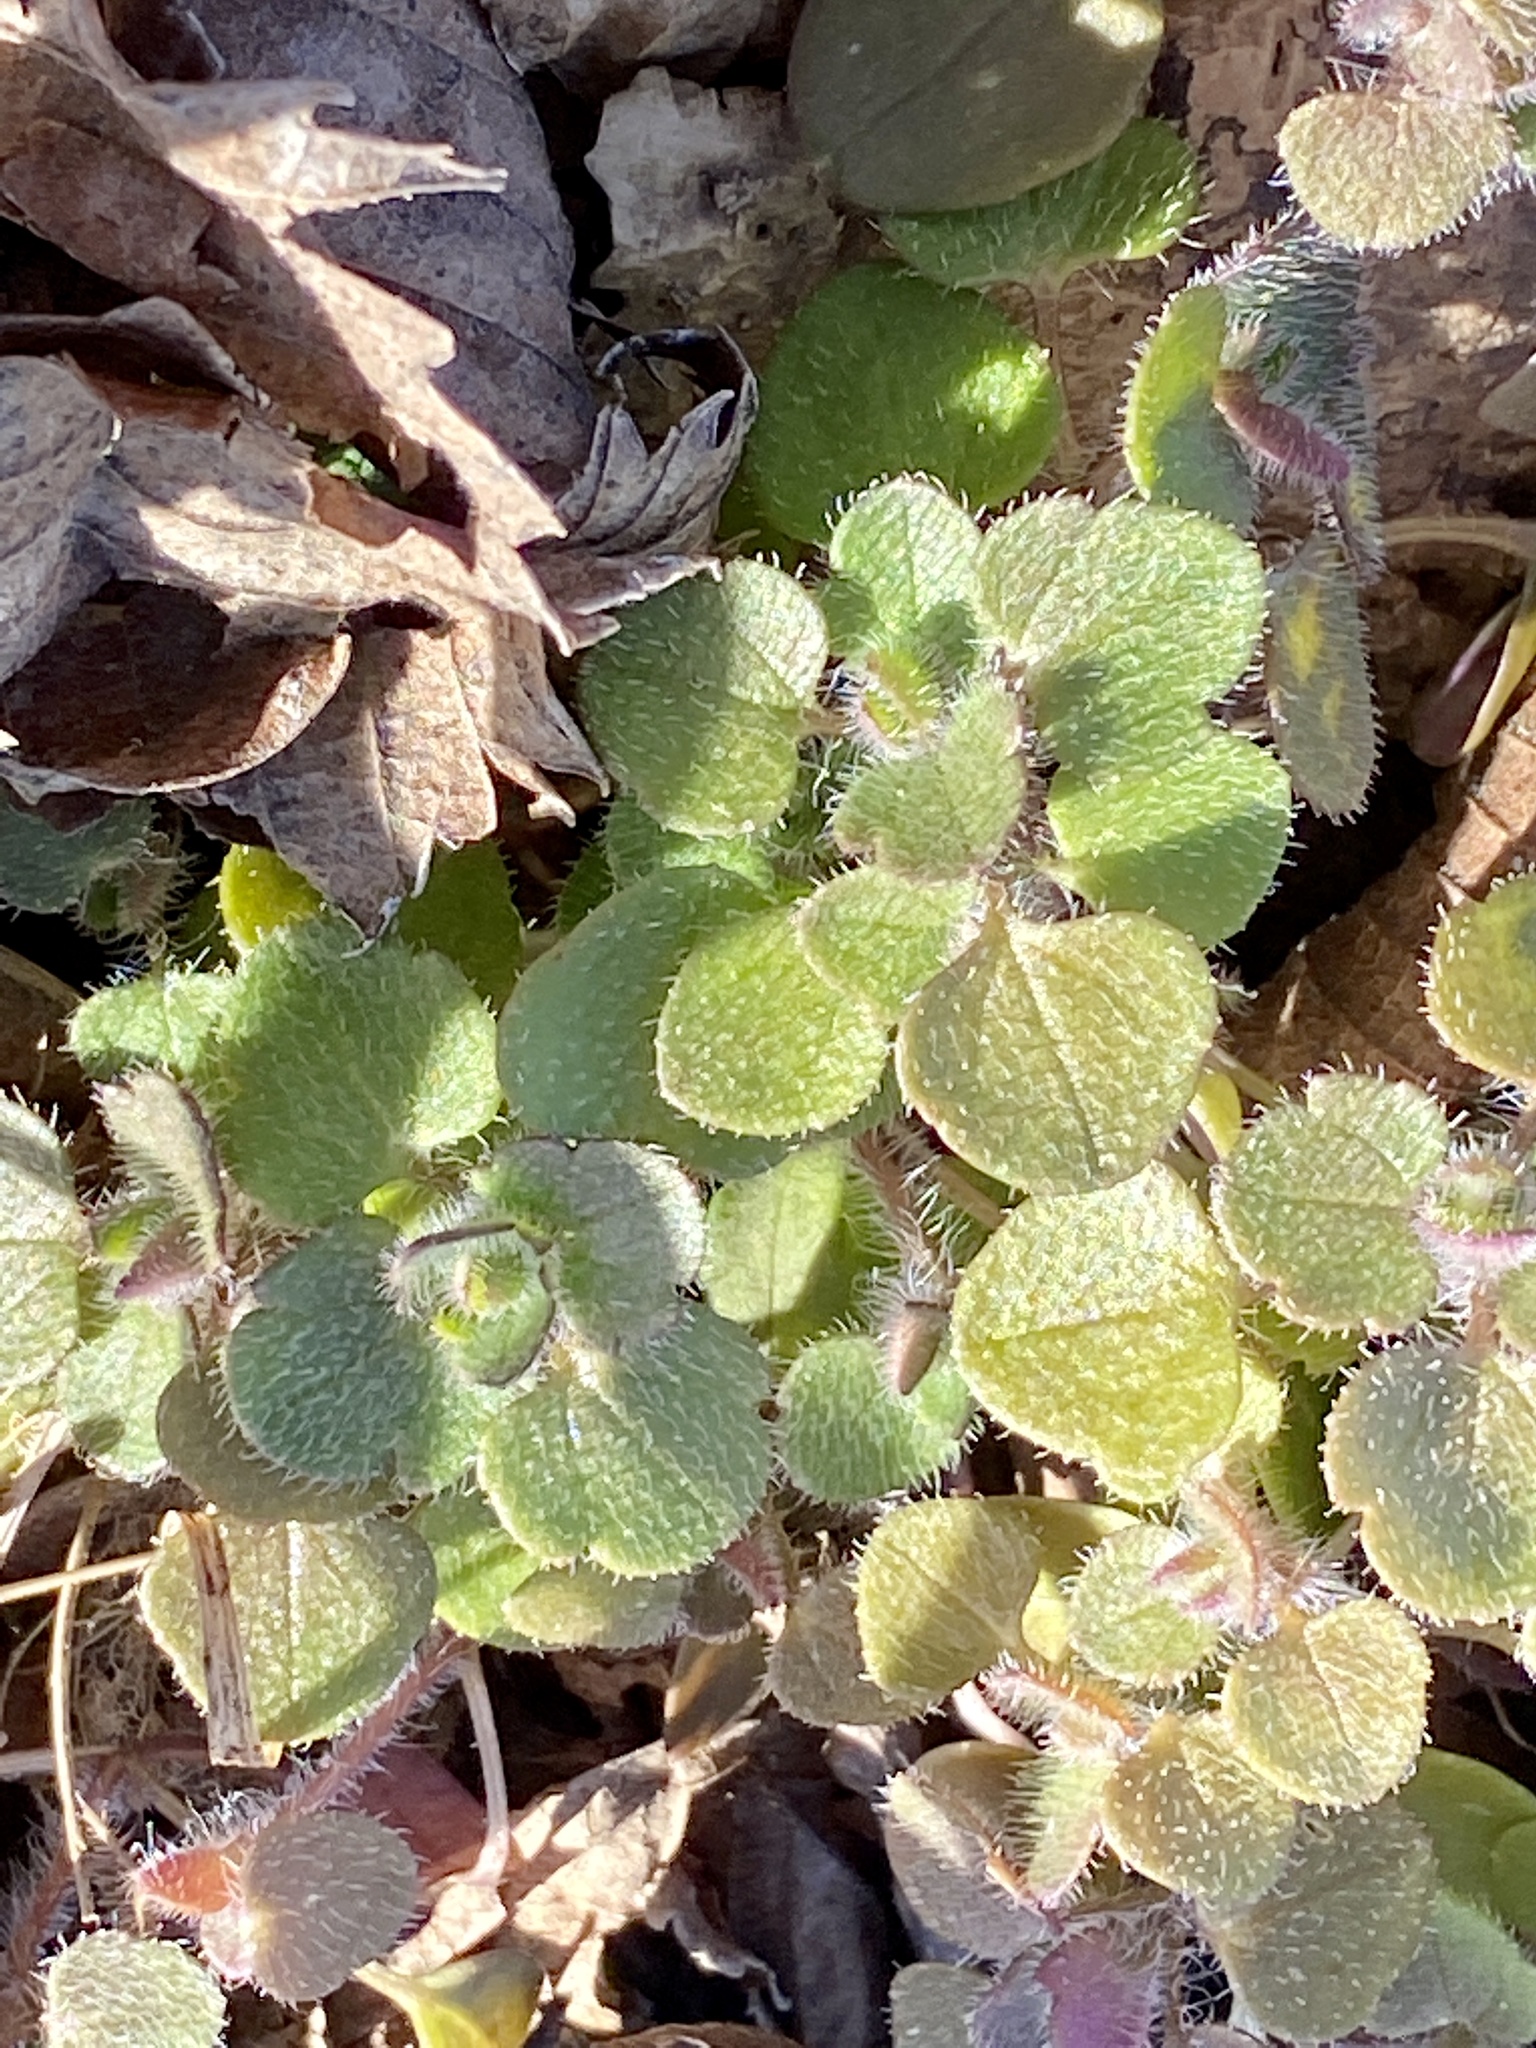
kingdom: Plantae
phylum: Tracheophyta
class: Magnoliopsida
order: Lamiales
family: Plantaginaceae
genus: Veronica
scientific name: Veronica hederifolia
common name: Ivy-leaved speedwell
